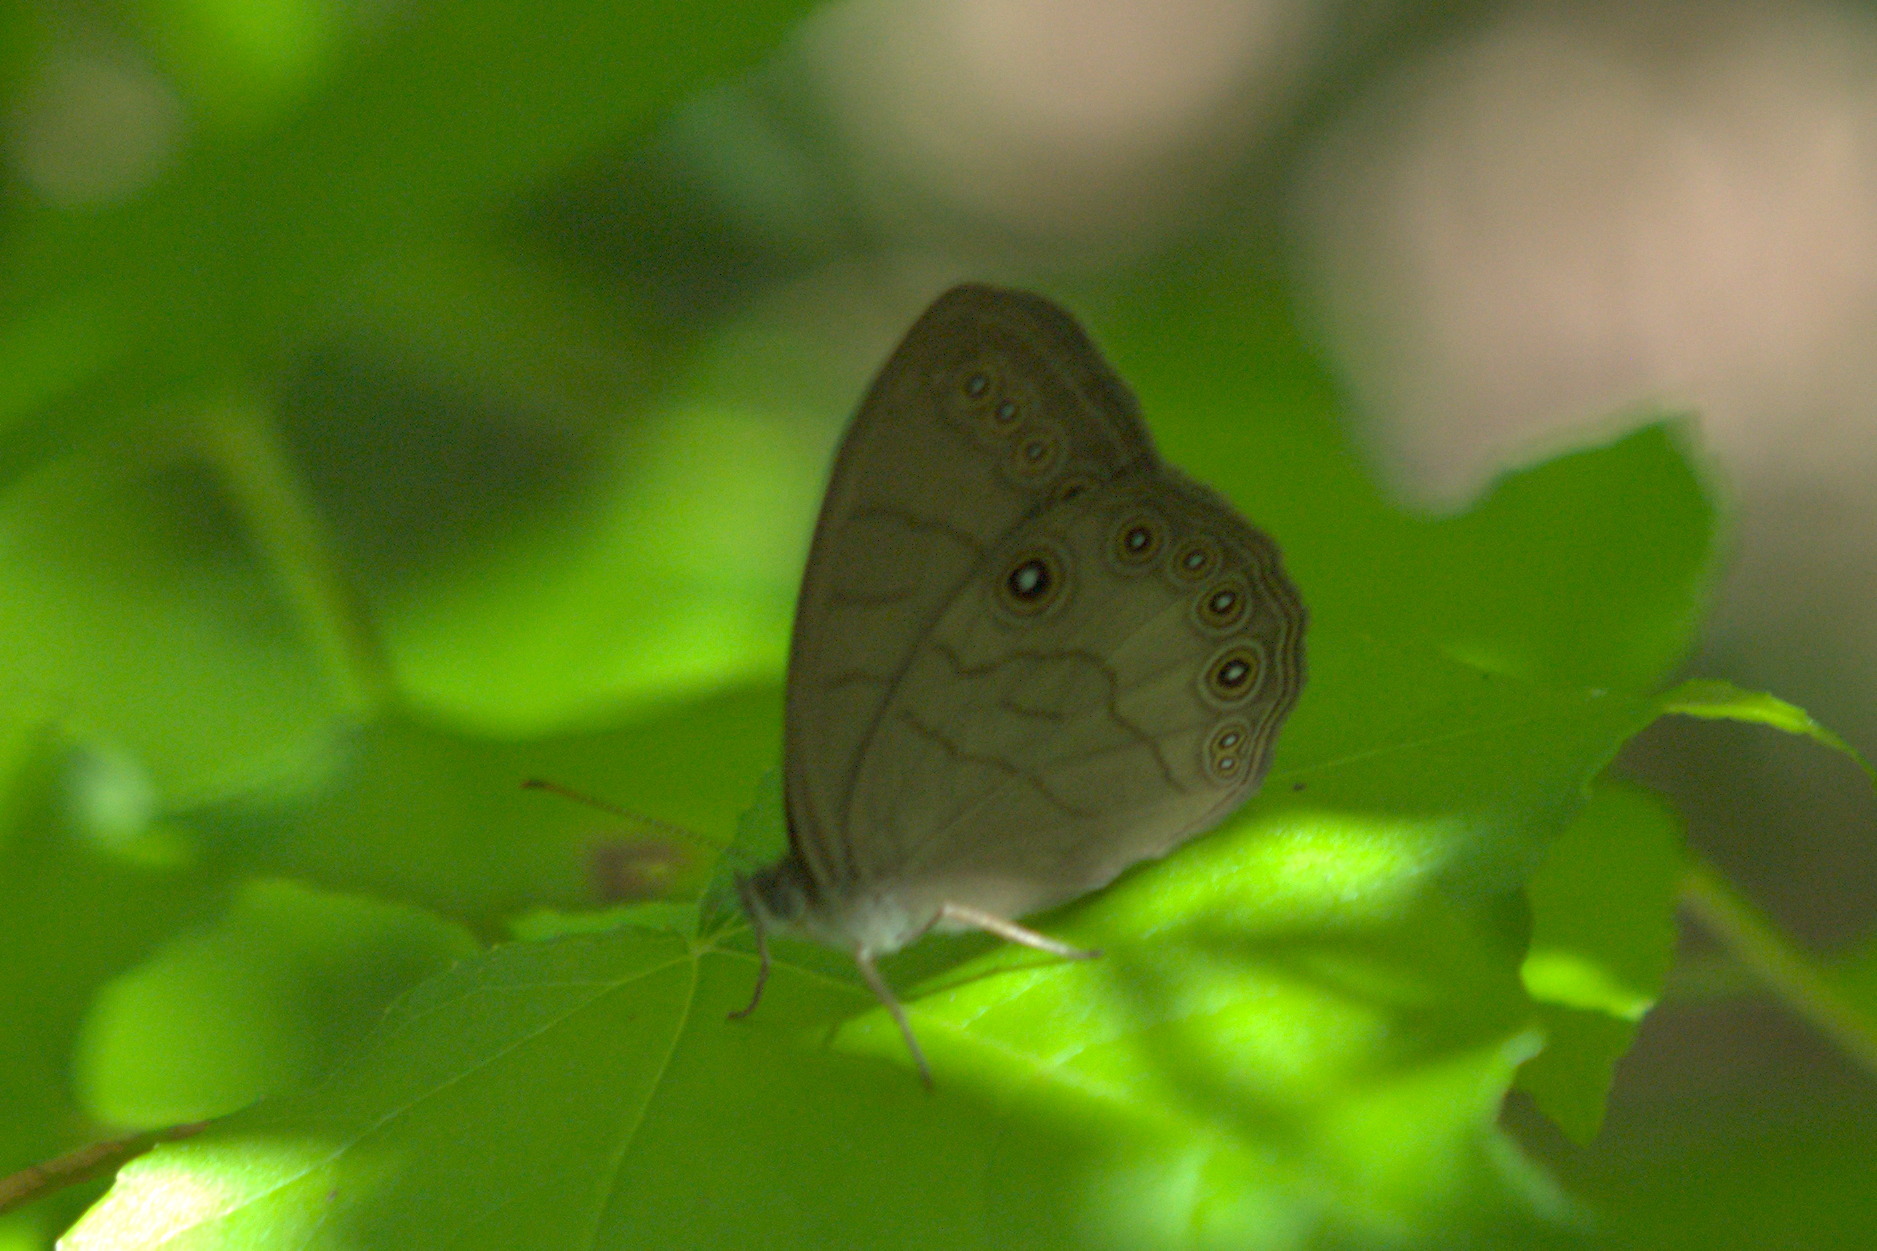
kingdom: Animalia
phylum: Arthropoda
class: Insecta
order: Lepidoptera
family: Nymphalidae
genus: Lethe
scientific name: Lethe eurydice
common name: Eyed brown
